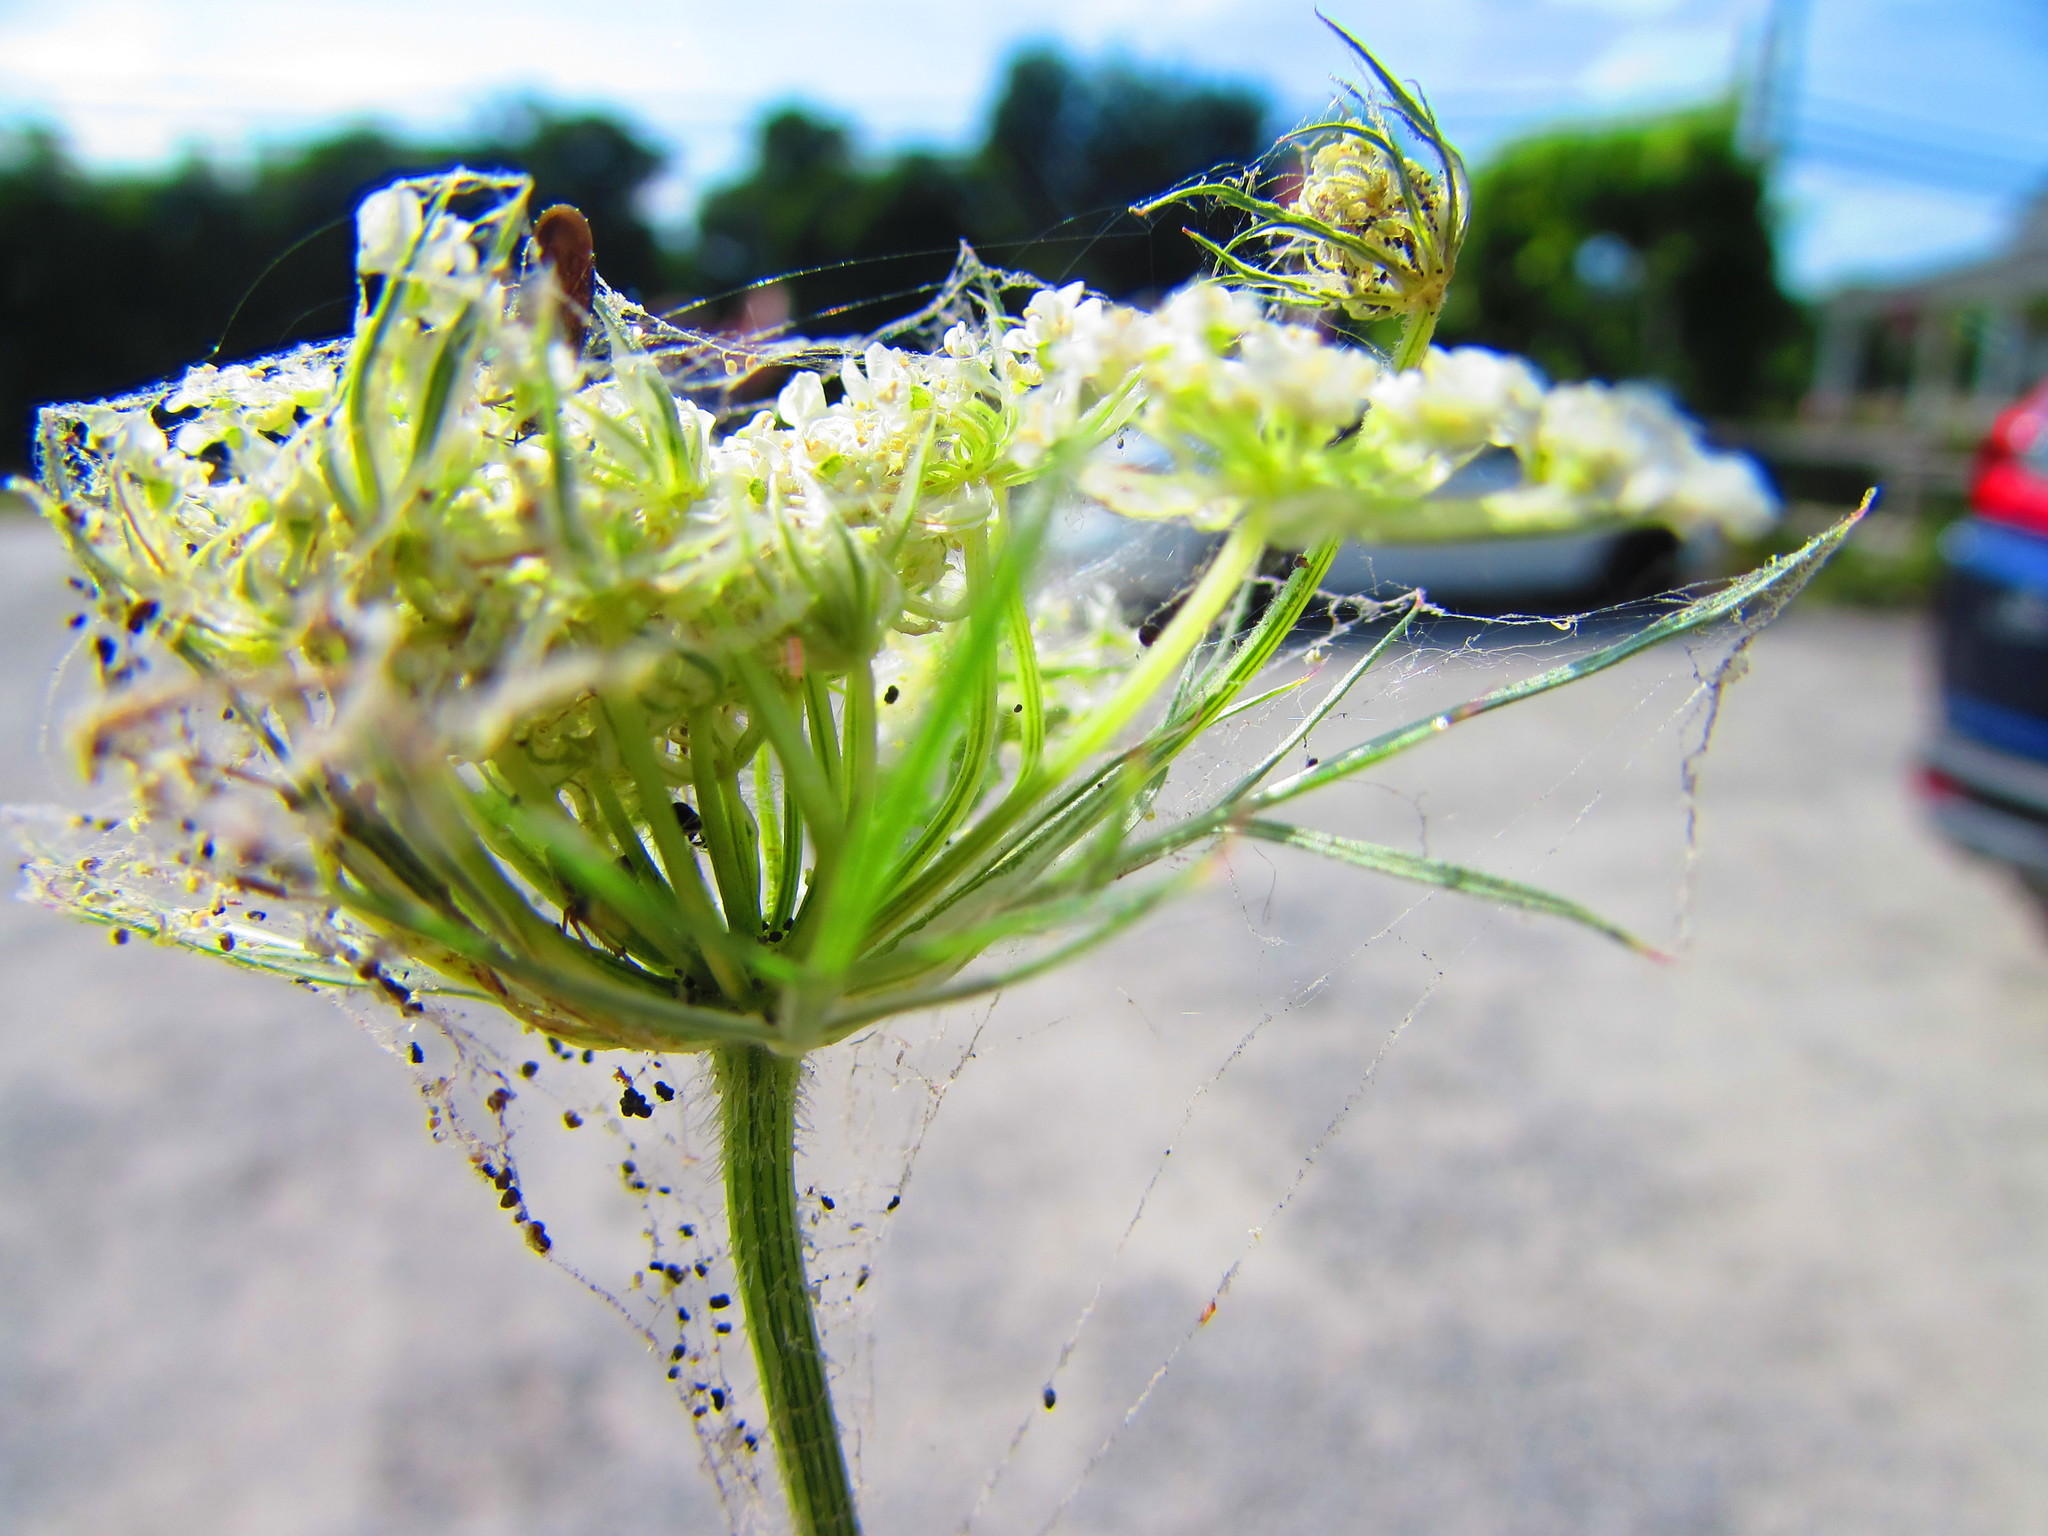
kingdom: Plantae
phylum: Tracheophyta
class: Magnoliopsida
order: Apiales
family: Apiaceae
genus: Daucus
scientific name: Daucus carota
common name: Wild carrot
